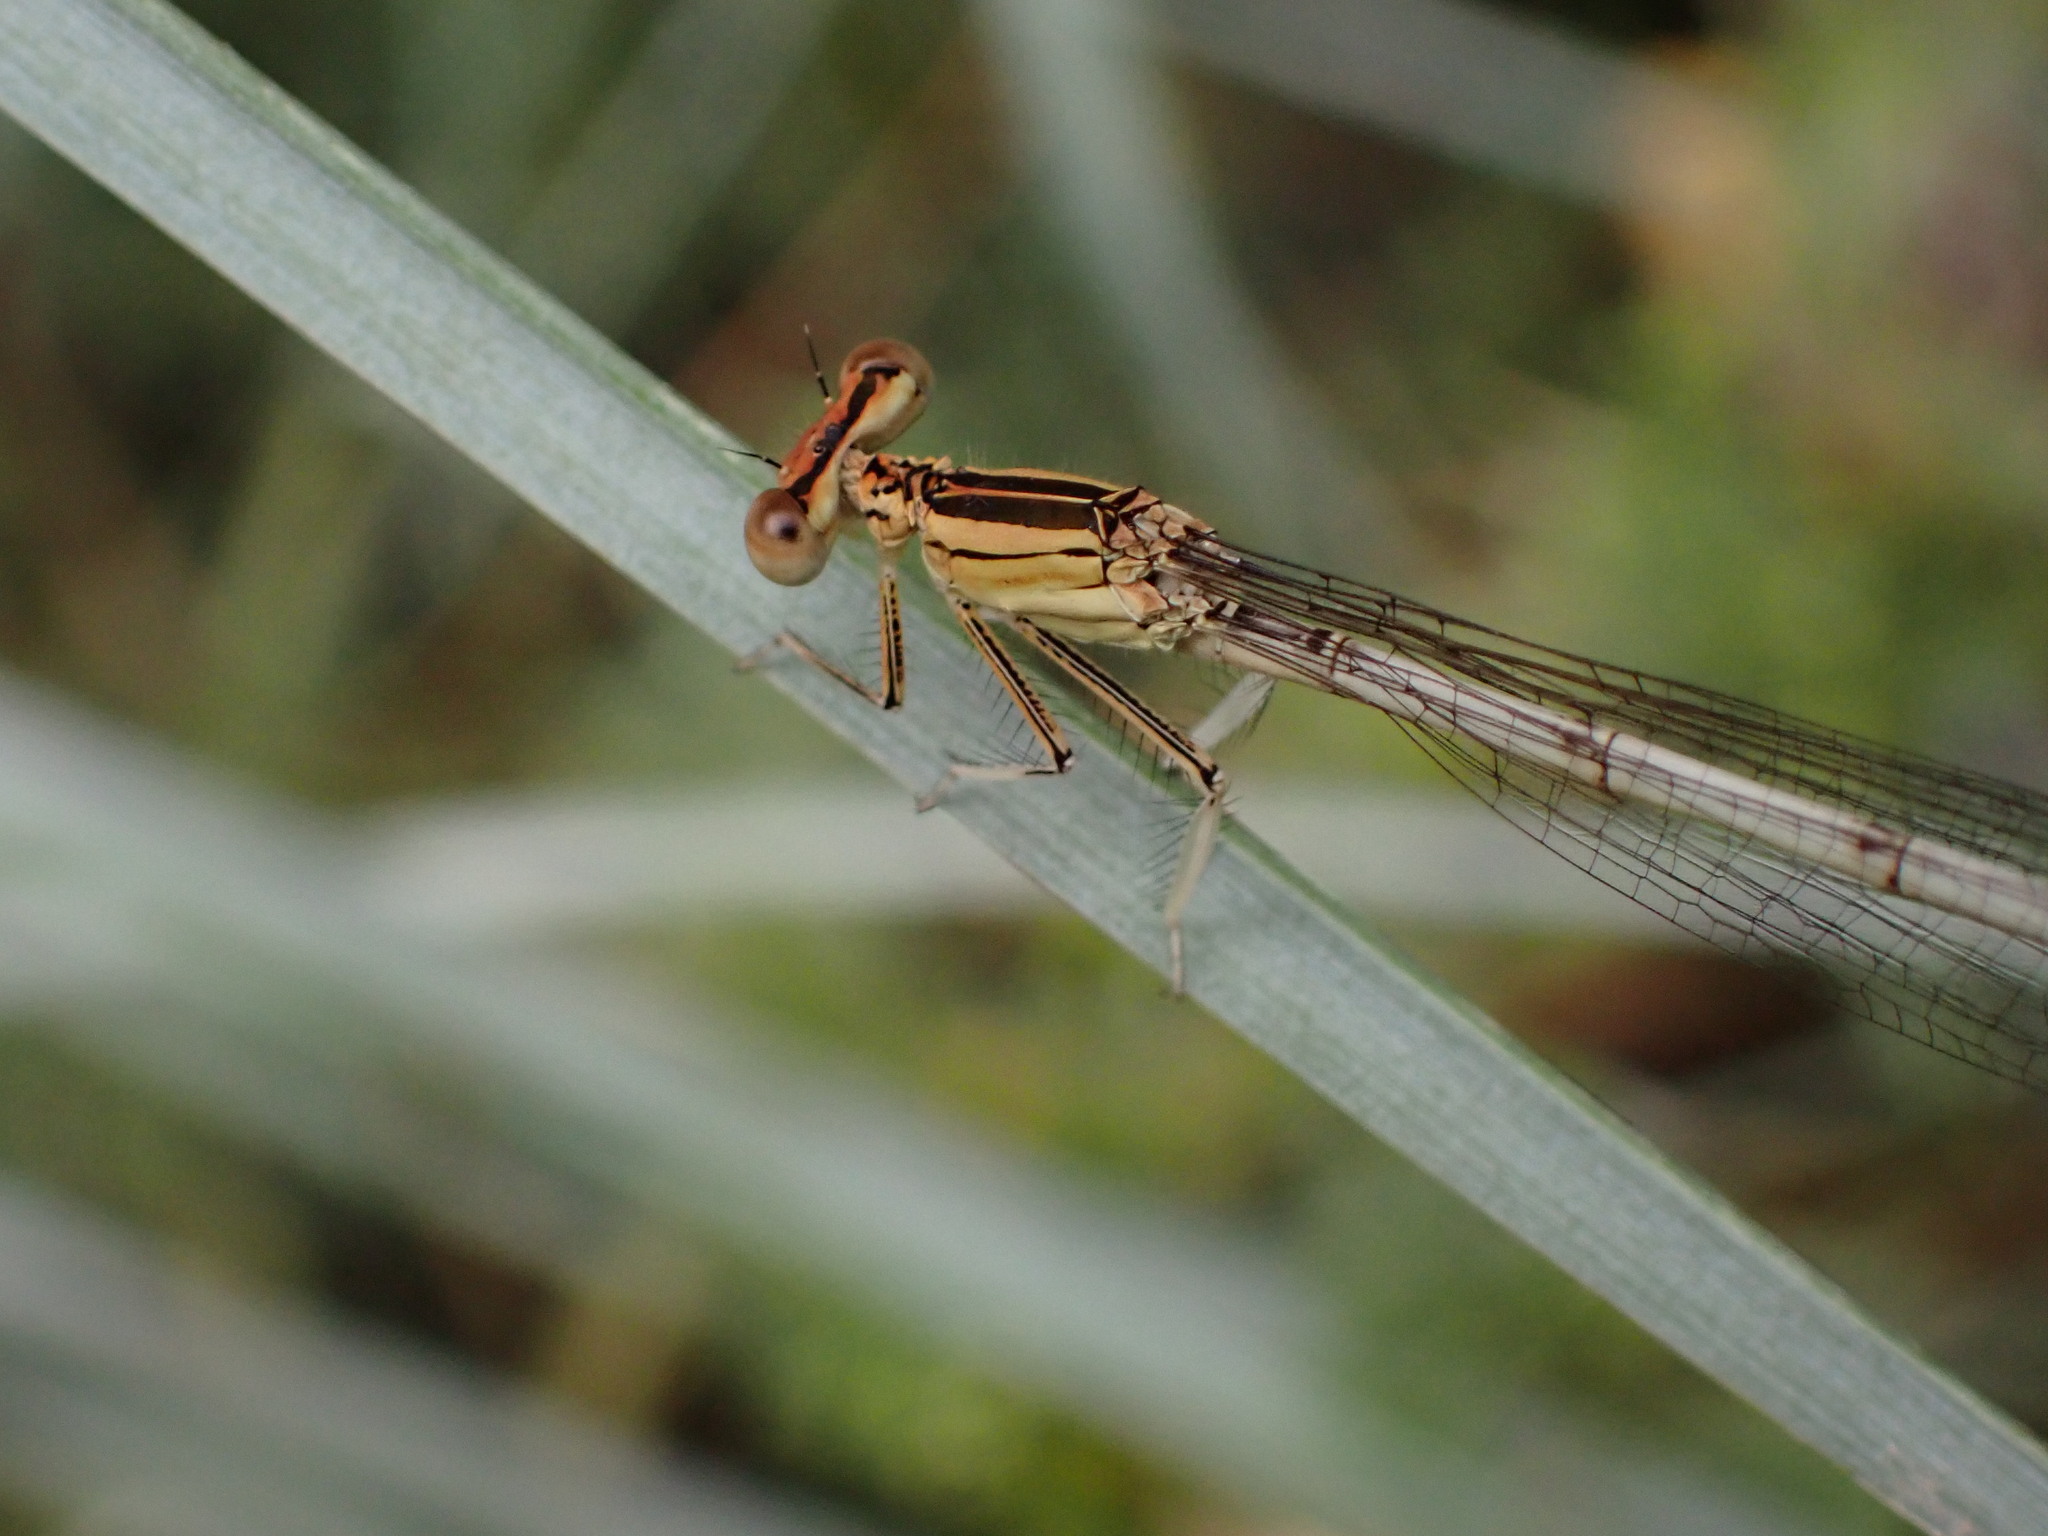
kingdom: Animalia
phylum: Arthropoda
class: Insecta
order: Odonata
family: Platycnemididae
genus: Platycnemis
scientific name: Platycnemis latipes
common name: White featherleg
